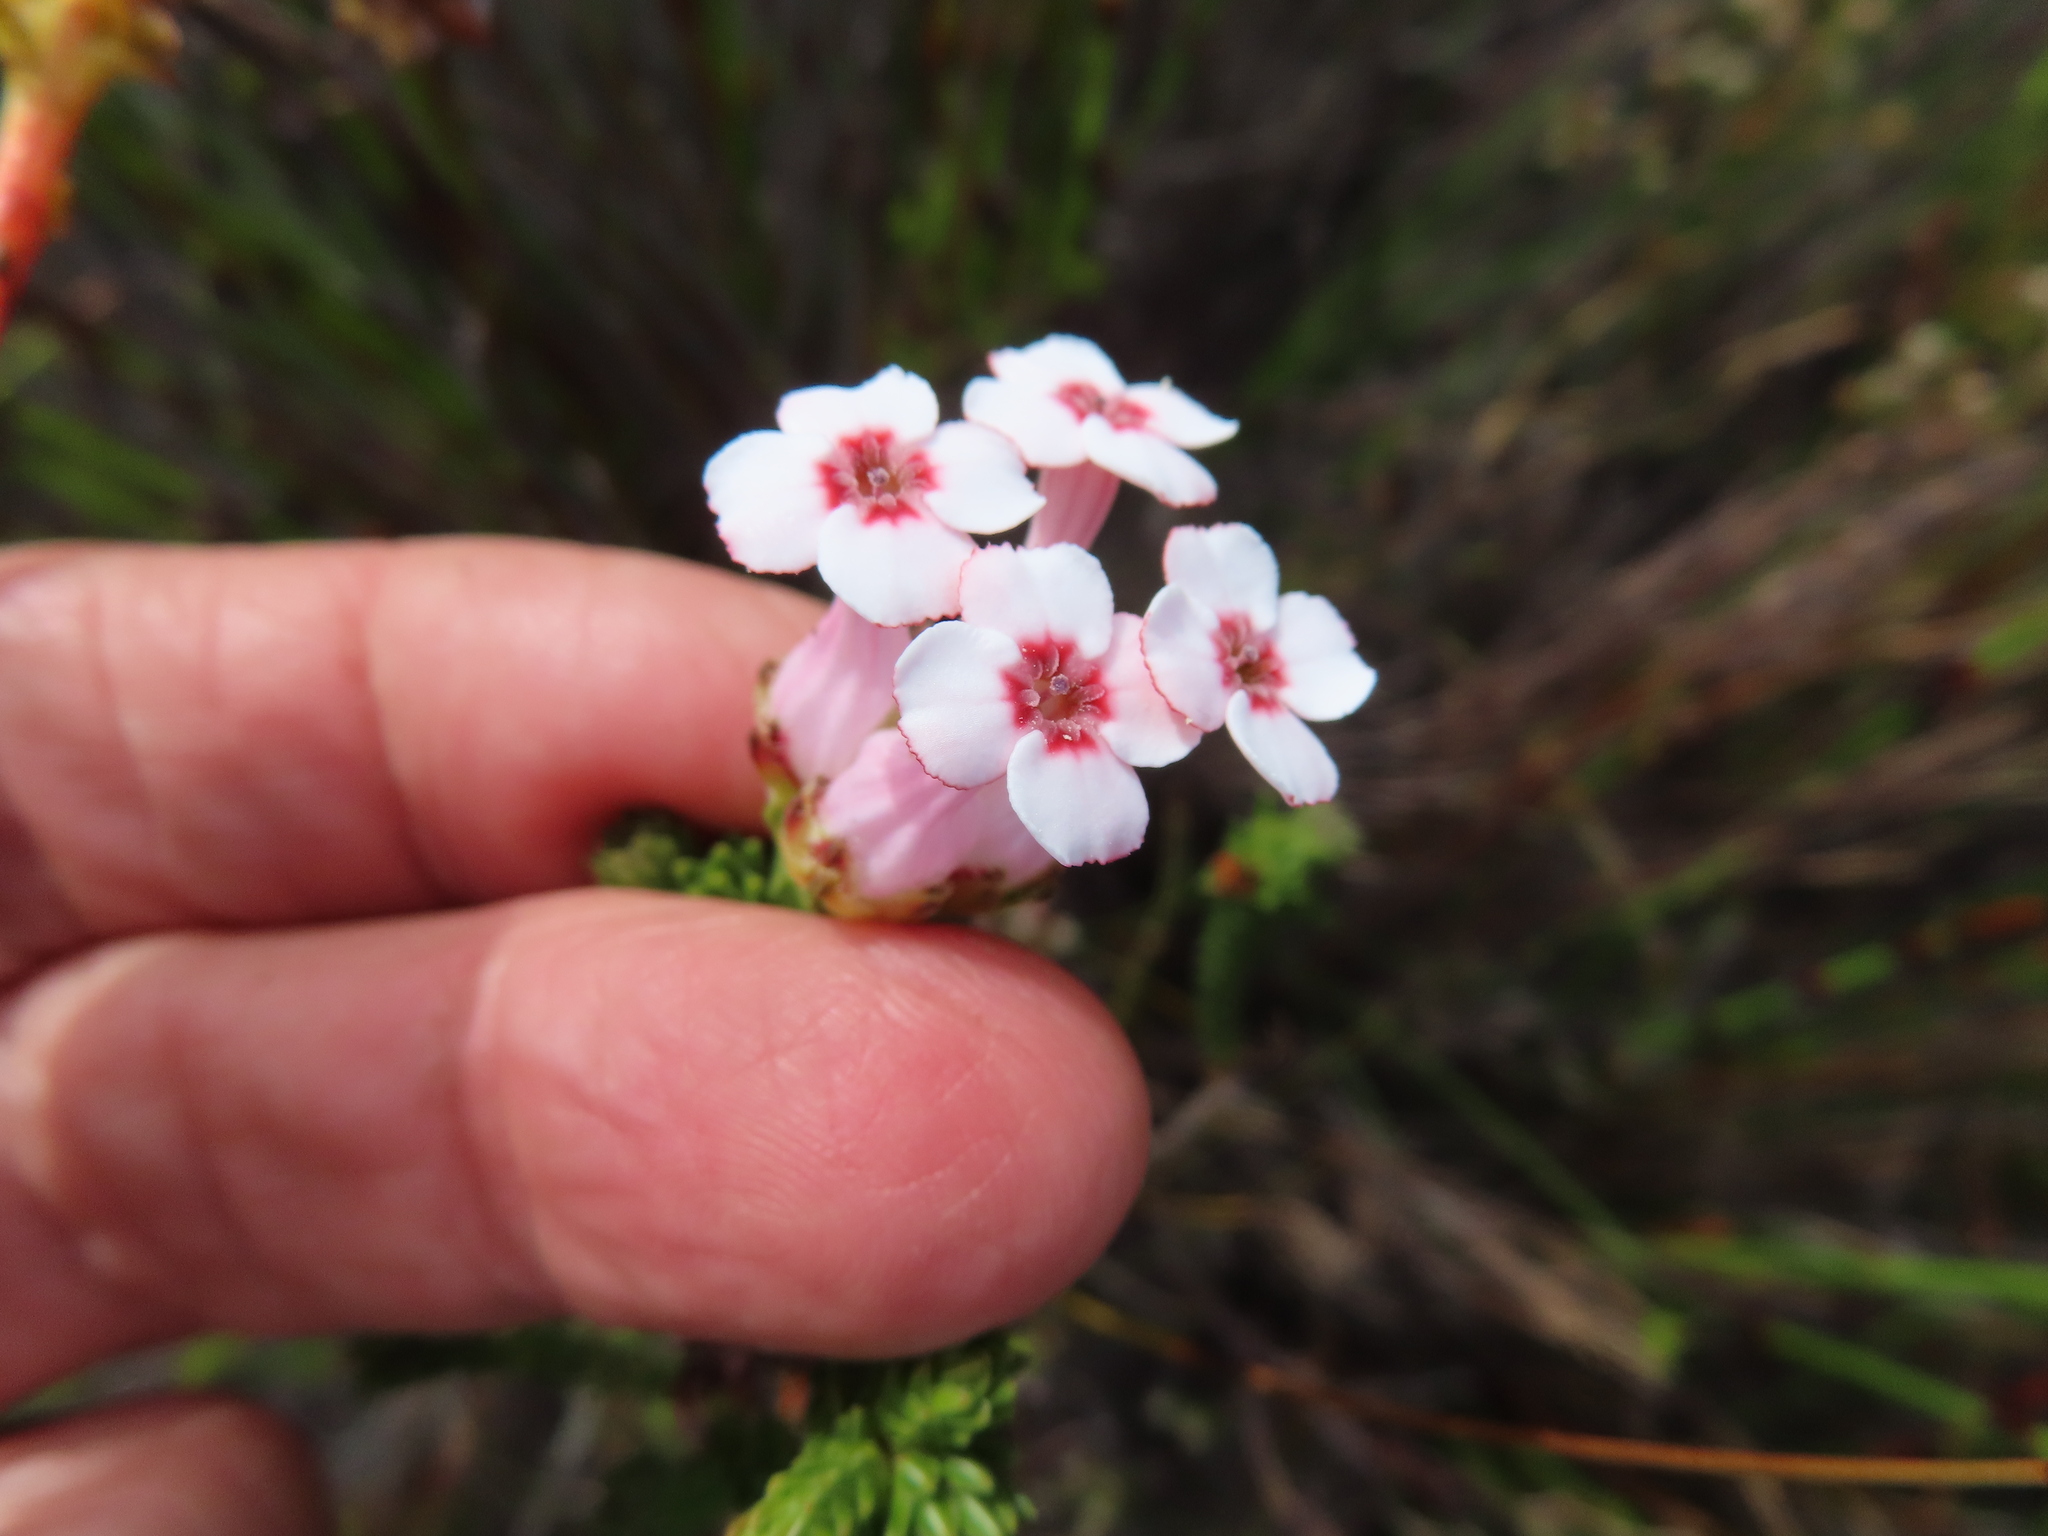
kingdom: Plantae
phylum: Tracheophyta
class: Magnoliopsida
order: Ericales
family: Ericaceae
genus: Erica
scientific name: Erica ampullacea
